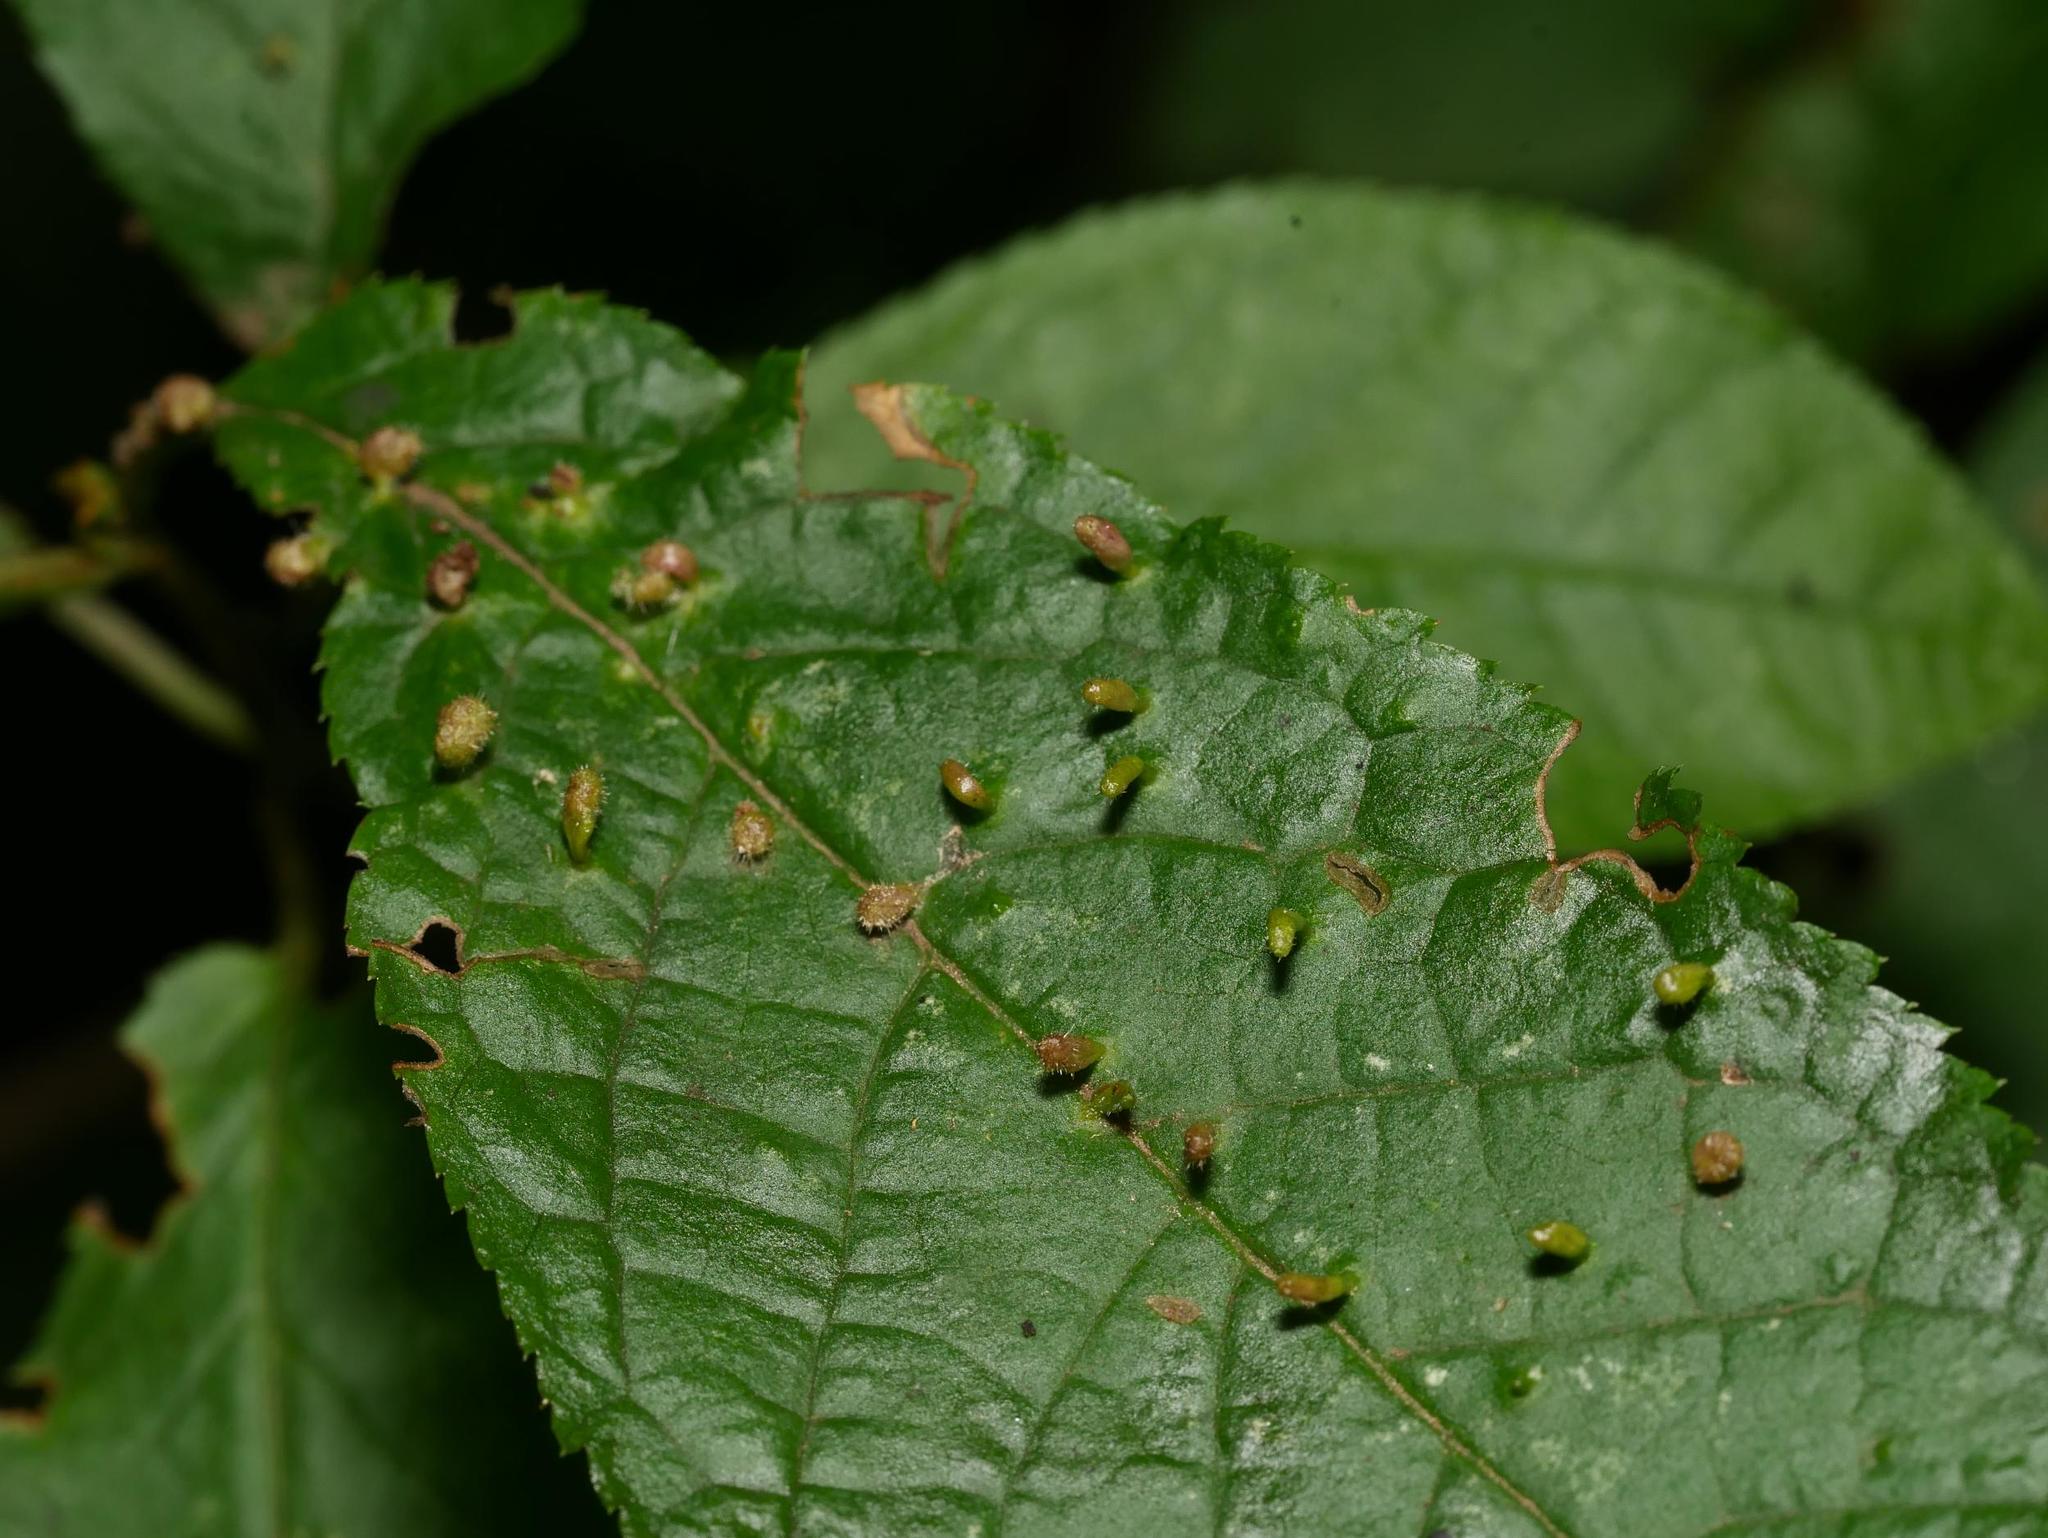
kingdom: Animalia
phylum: Arthropoda
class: Arachnida
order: Trombidiformes
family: Eriophyidae
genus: Phyllocoptes
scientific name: Phyllocoptes eupadi
